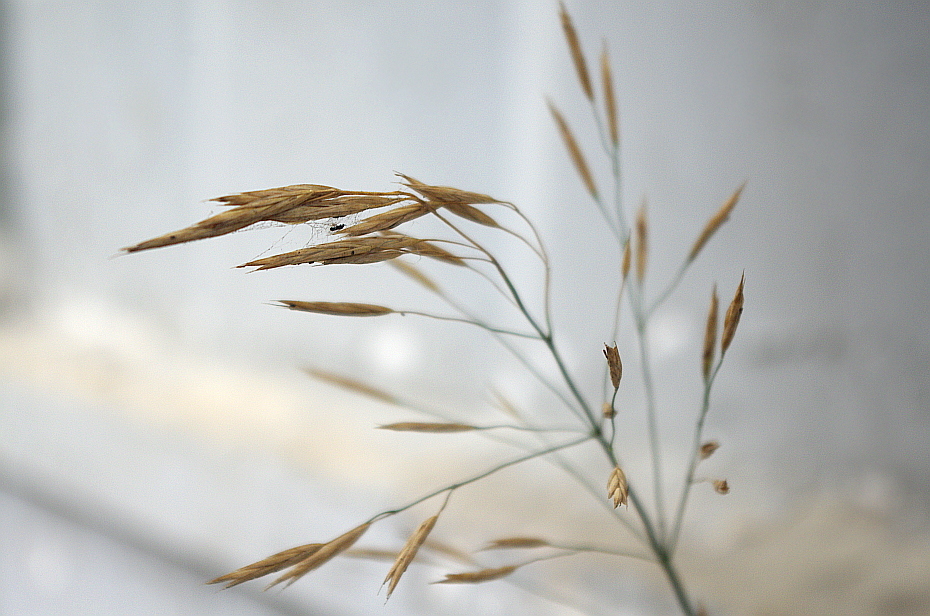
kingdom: Plantae
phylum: Tracheophyta
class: Liliopsida
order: Poales
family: Poaceae
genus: Bromus
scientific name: Bromus inermis
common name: Smooth brome
